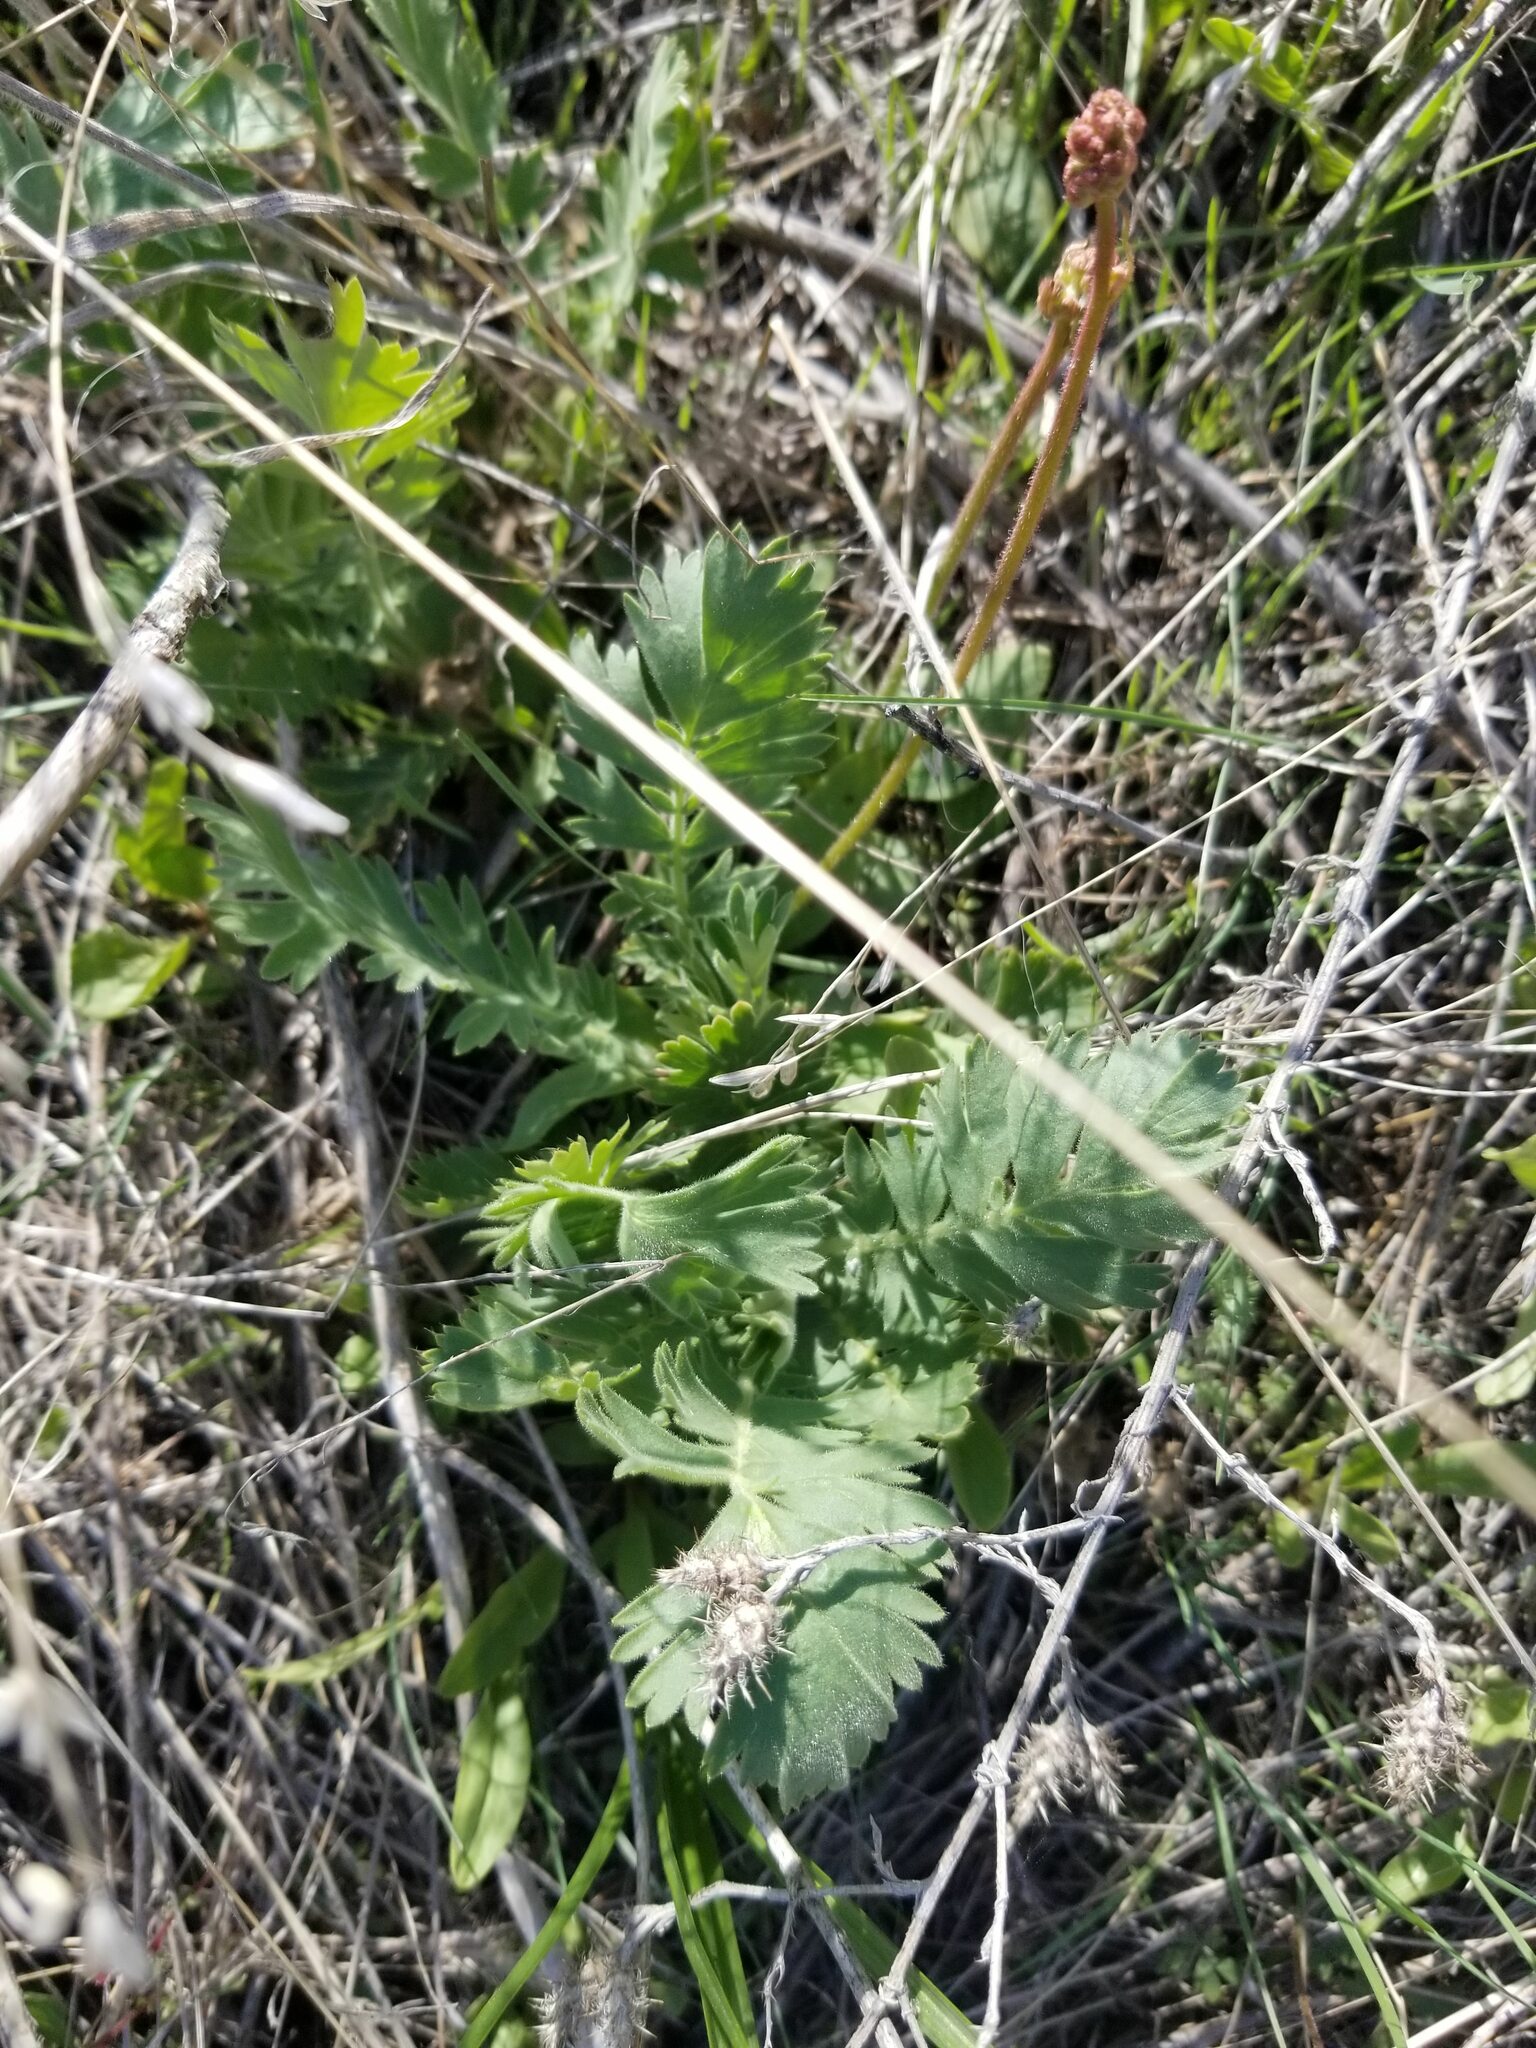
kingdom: Plantae
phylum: Tracheophyta
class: Magnoliopsida
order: Rosales
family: Rosaceae
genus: Geum
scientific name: Geum triflorum
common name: Old man's whiskers
